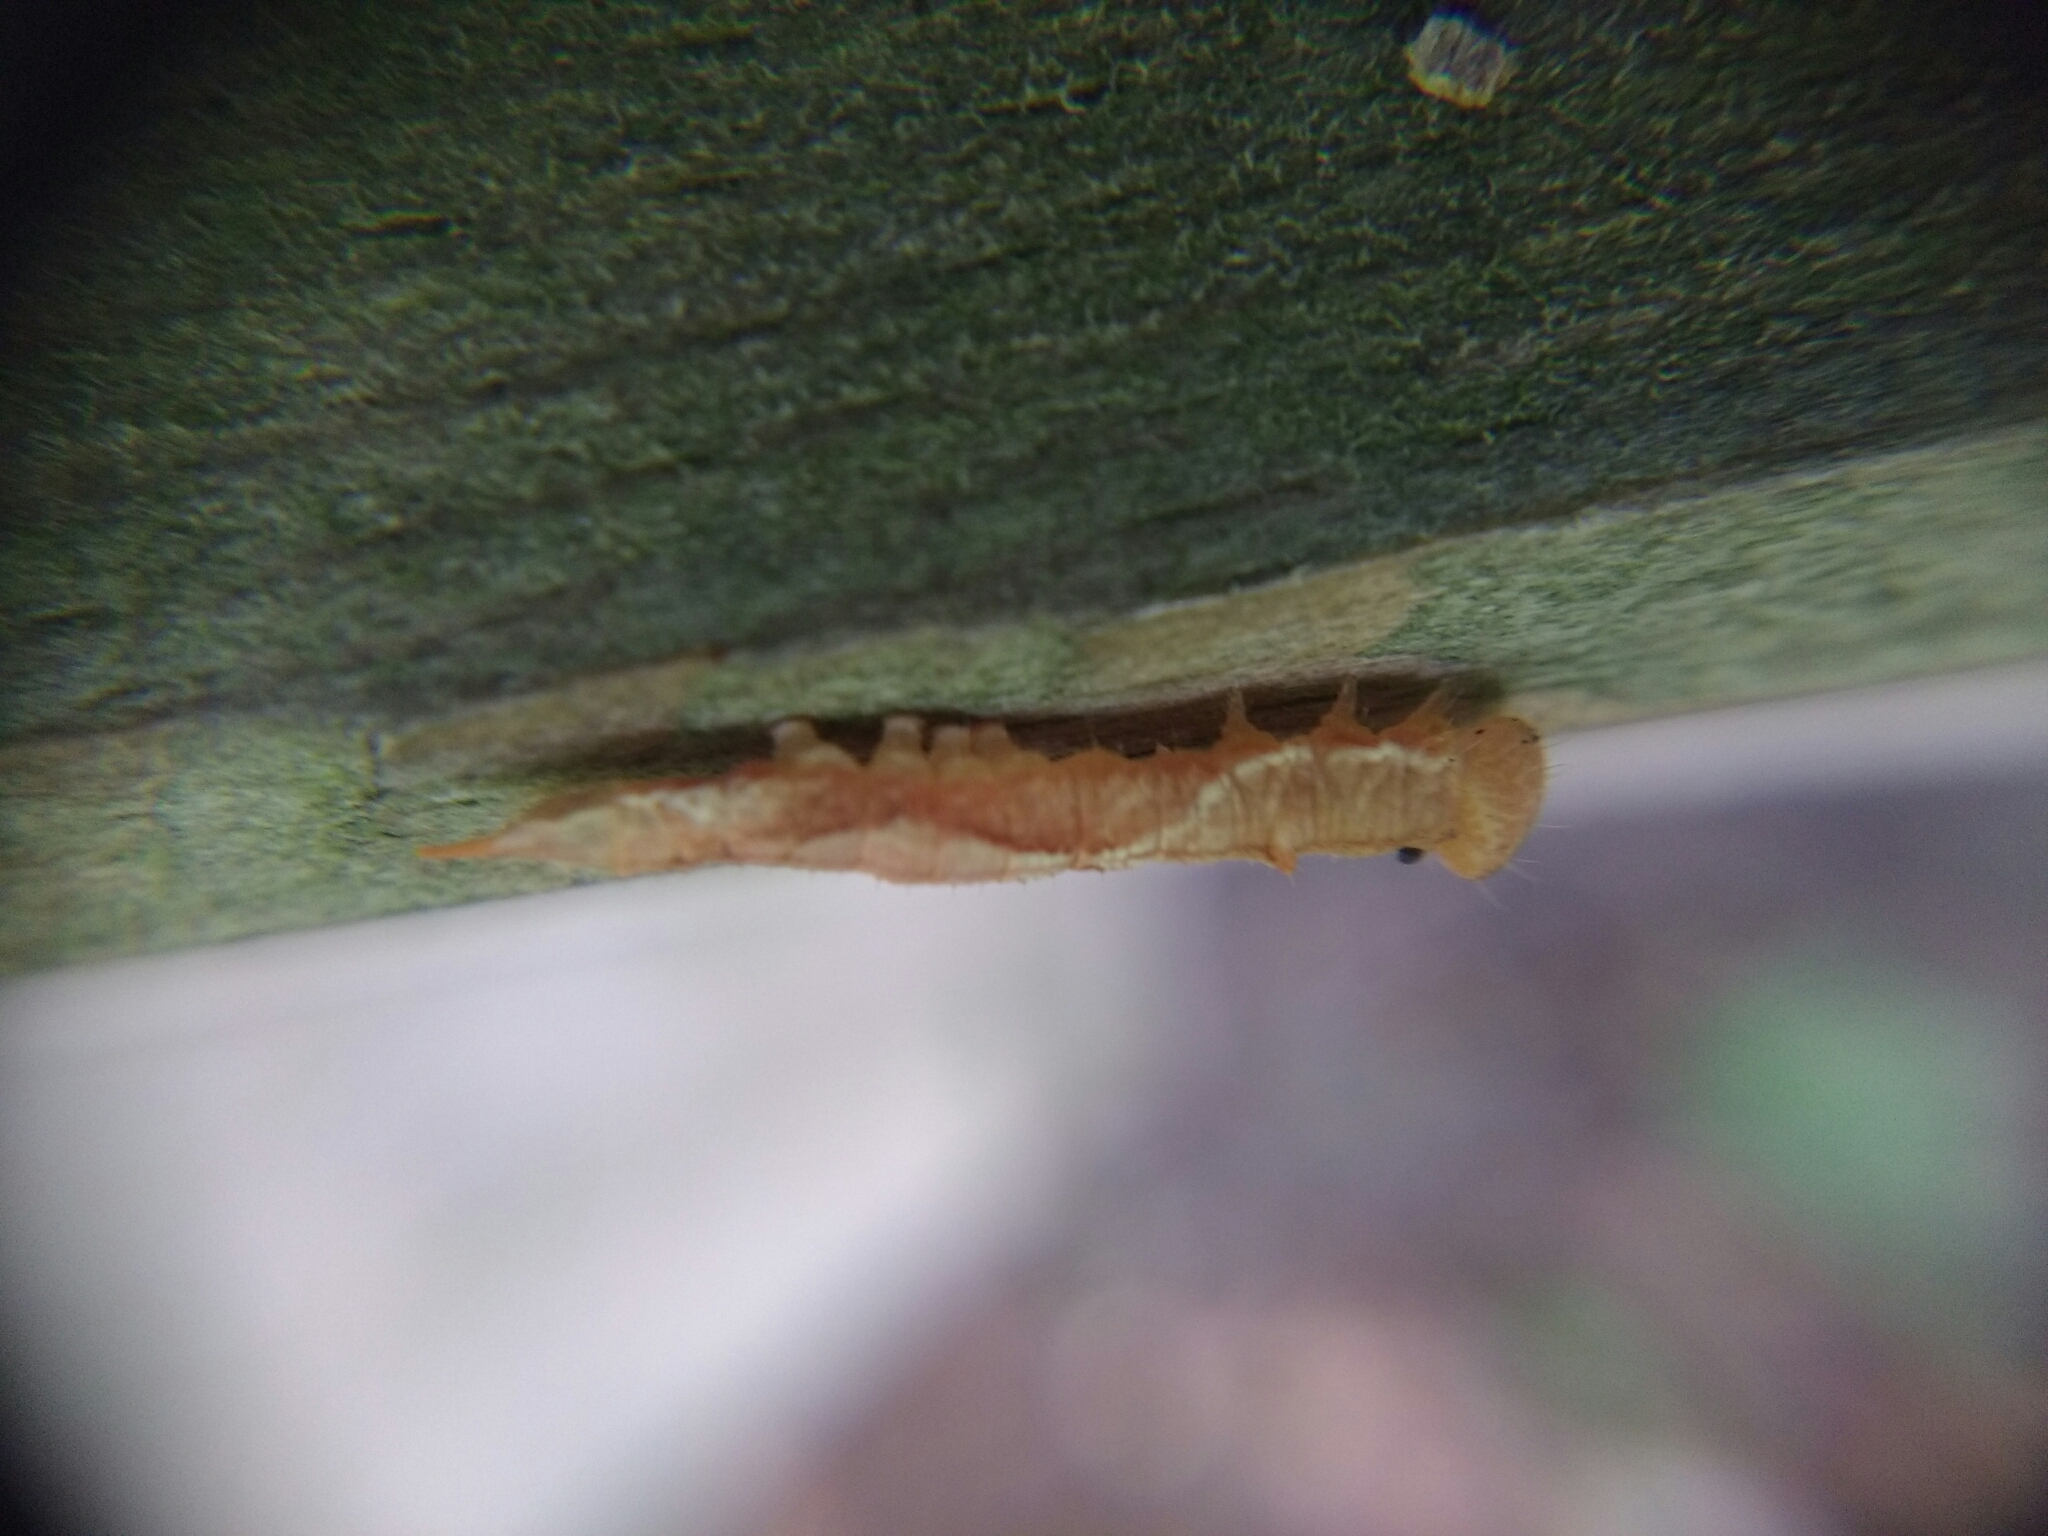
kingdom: Animalia
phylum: Arthropoda
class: Insecta
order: Lepidoptera
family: Drepanidae
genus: Watsonalla
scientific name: Watsonalla cultraria
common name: Barred hook-tip
